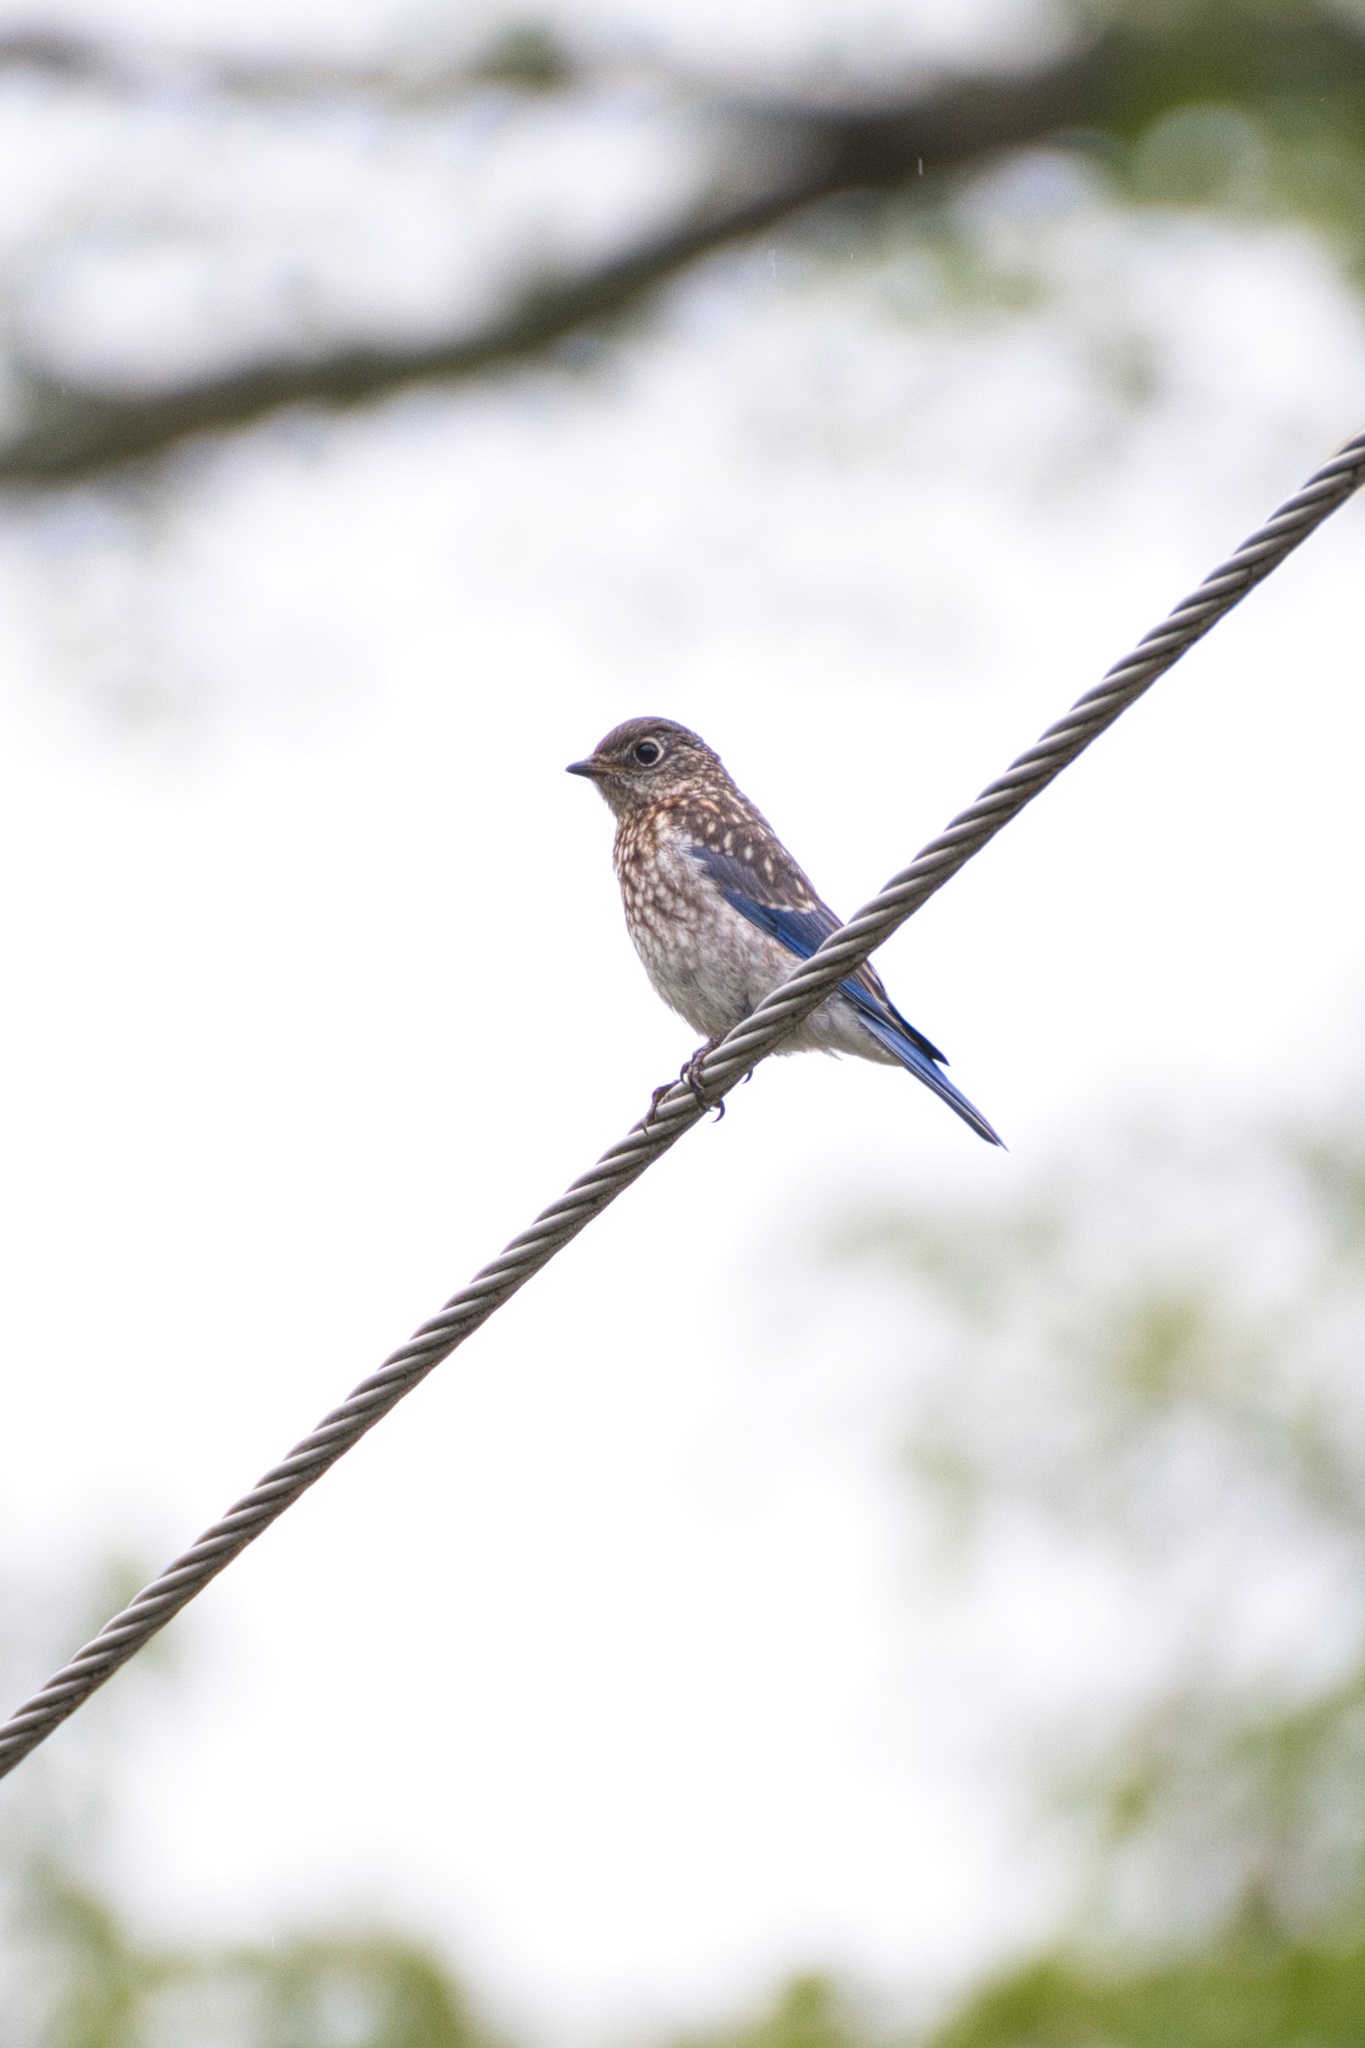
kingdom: Animalia
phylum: Chordata
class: Aves
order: Passeriformes
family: Turdidae
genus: Sialia
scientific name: Sialia sialis
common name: Eastern bluebird
